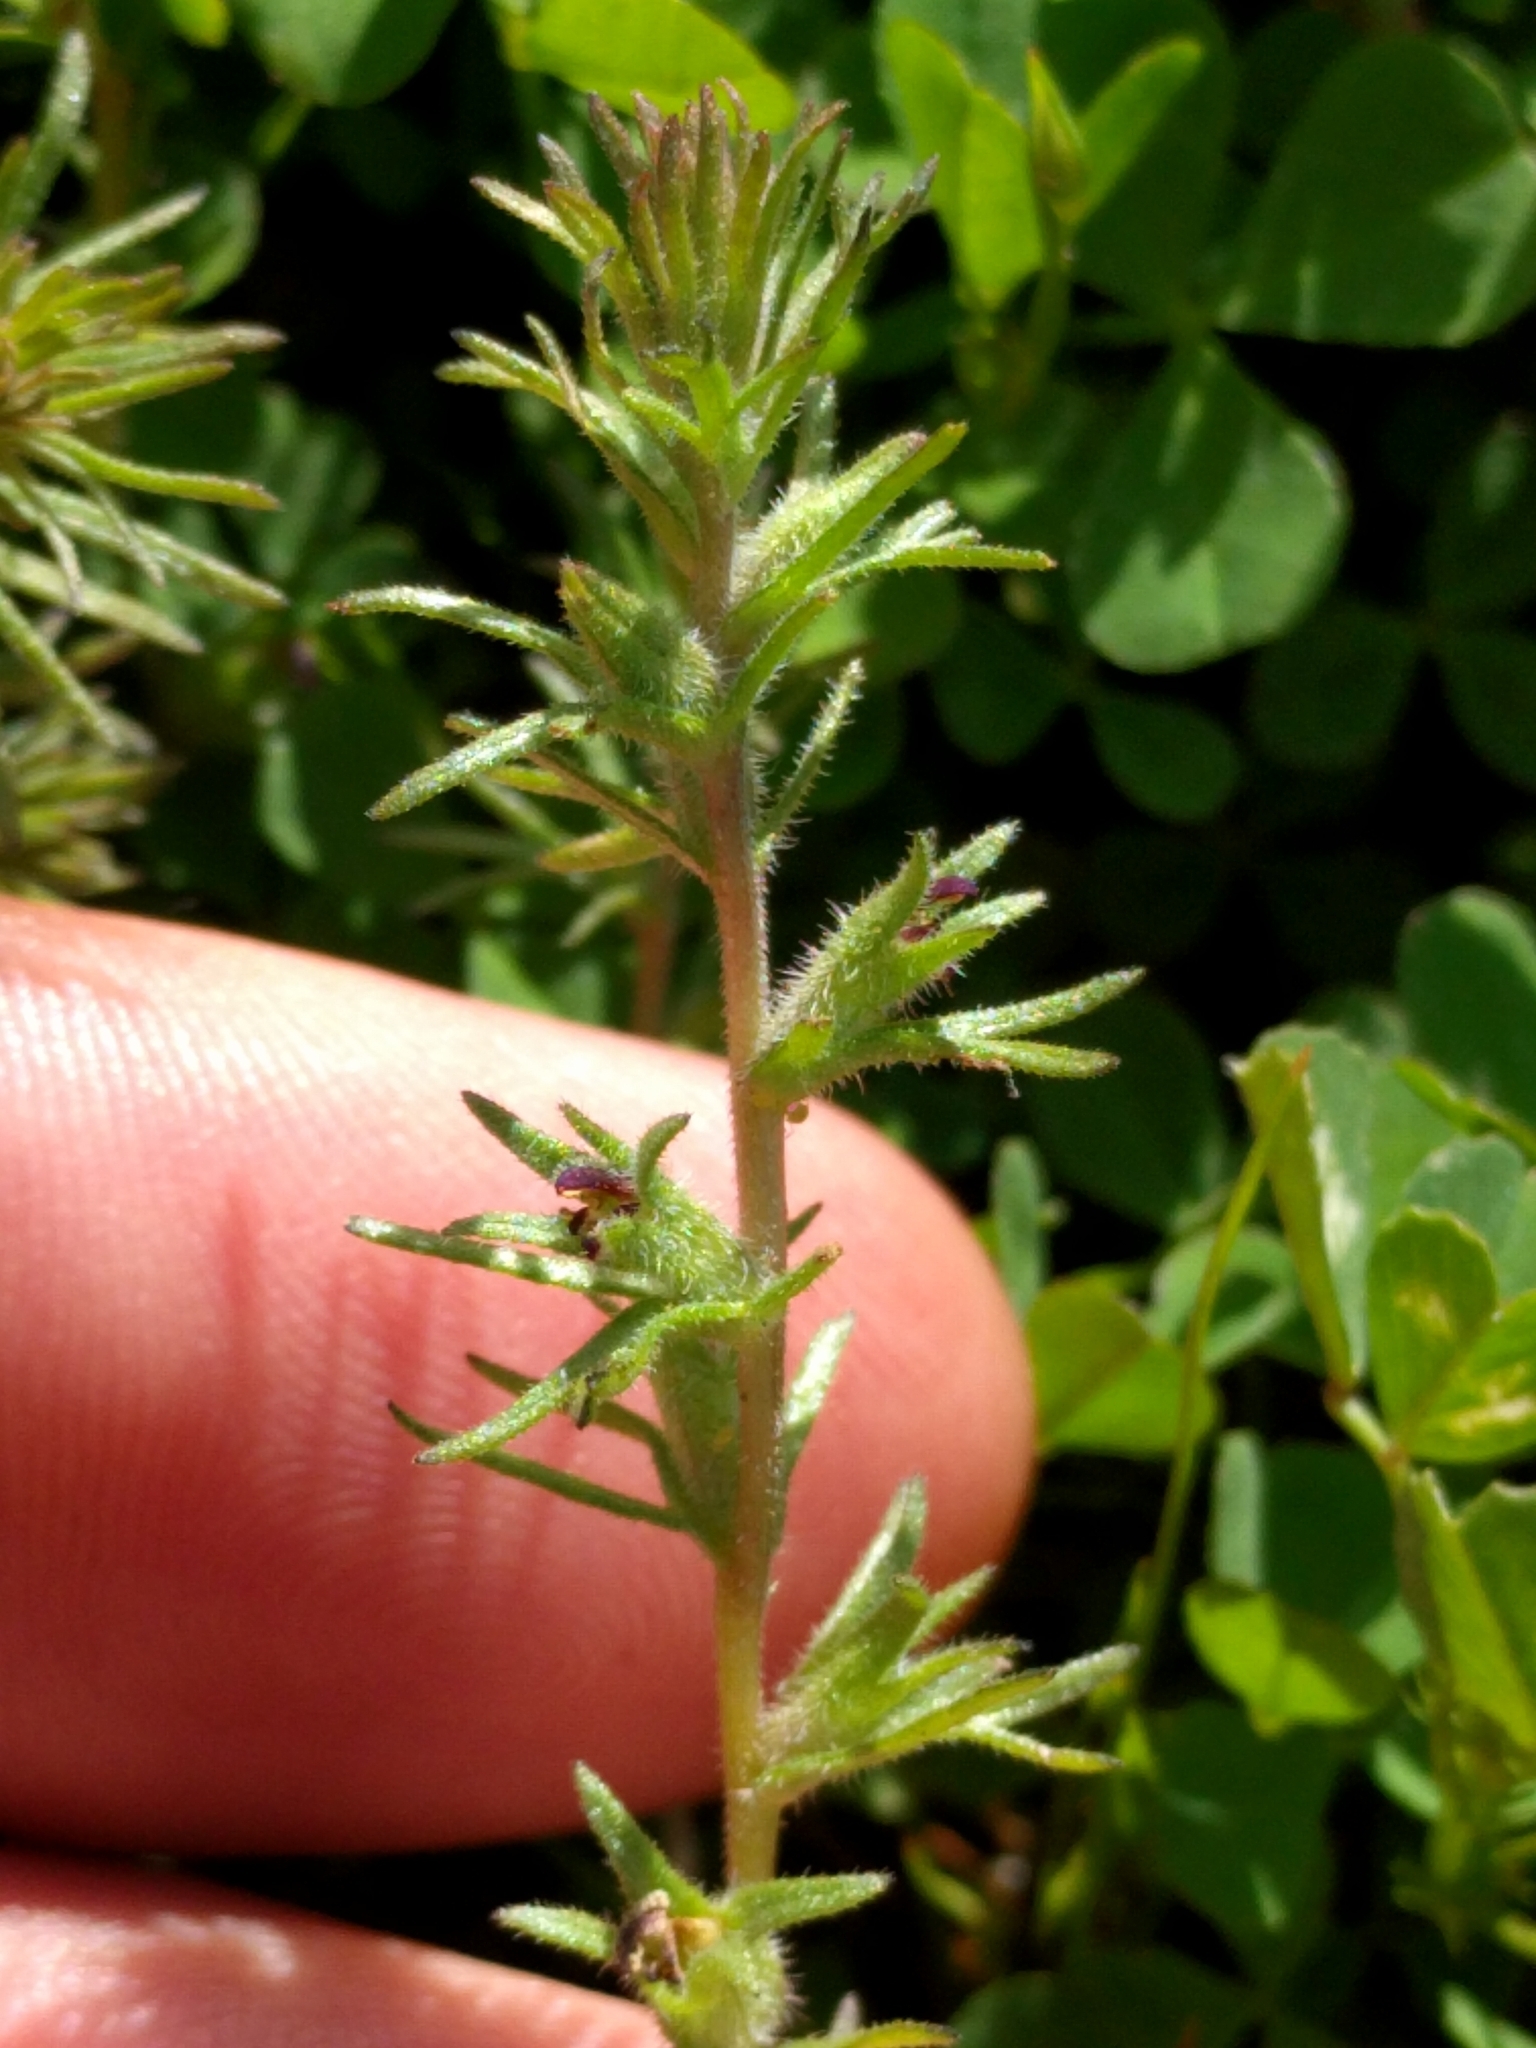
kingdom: Plantae
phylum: Tracheophyta
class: Magnoliopsida
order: Lamiales
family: Orobanchaceae
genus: Triphysaria
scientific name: Triphysaria pusilla
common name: Dwarf false owl-clover
